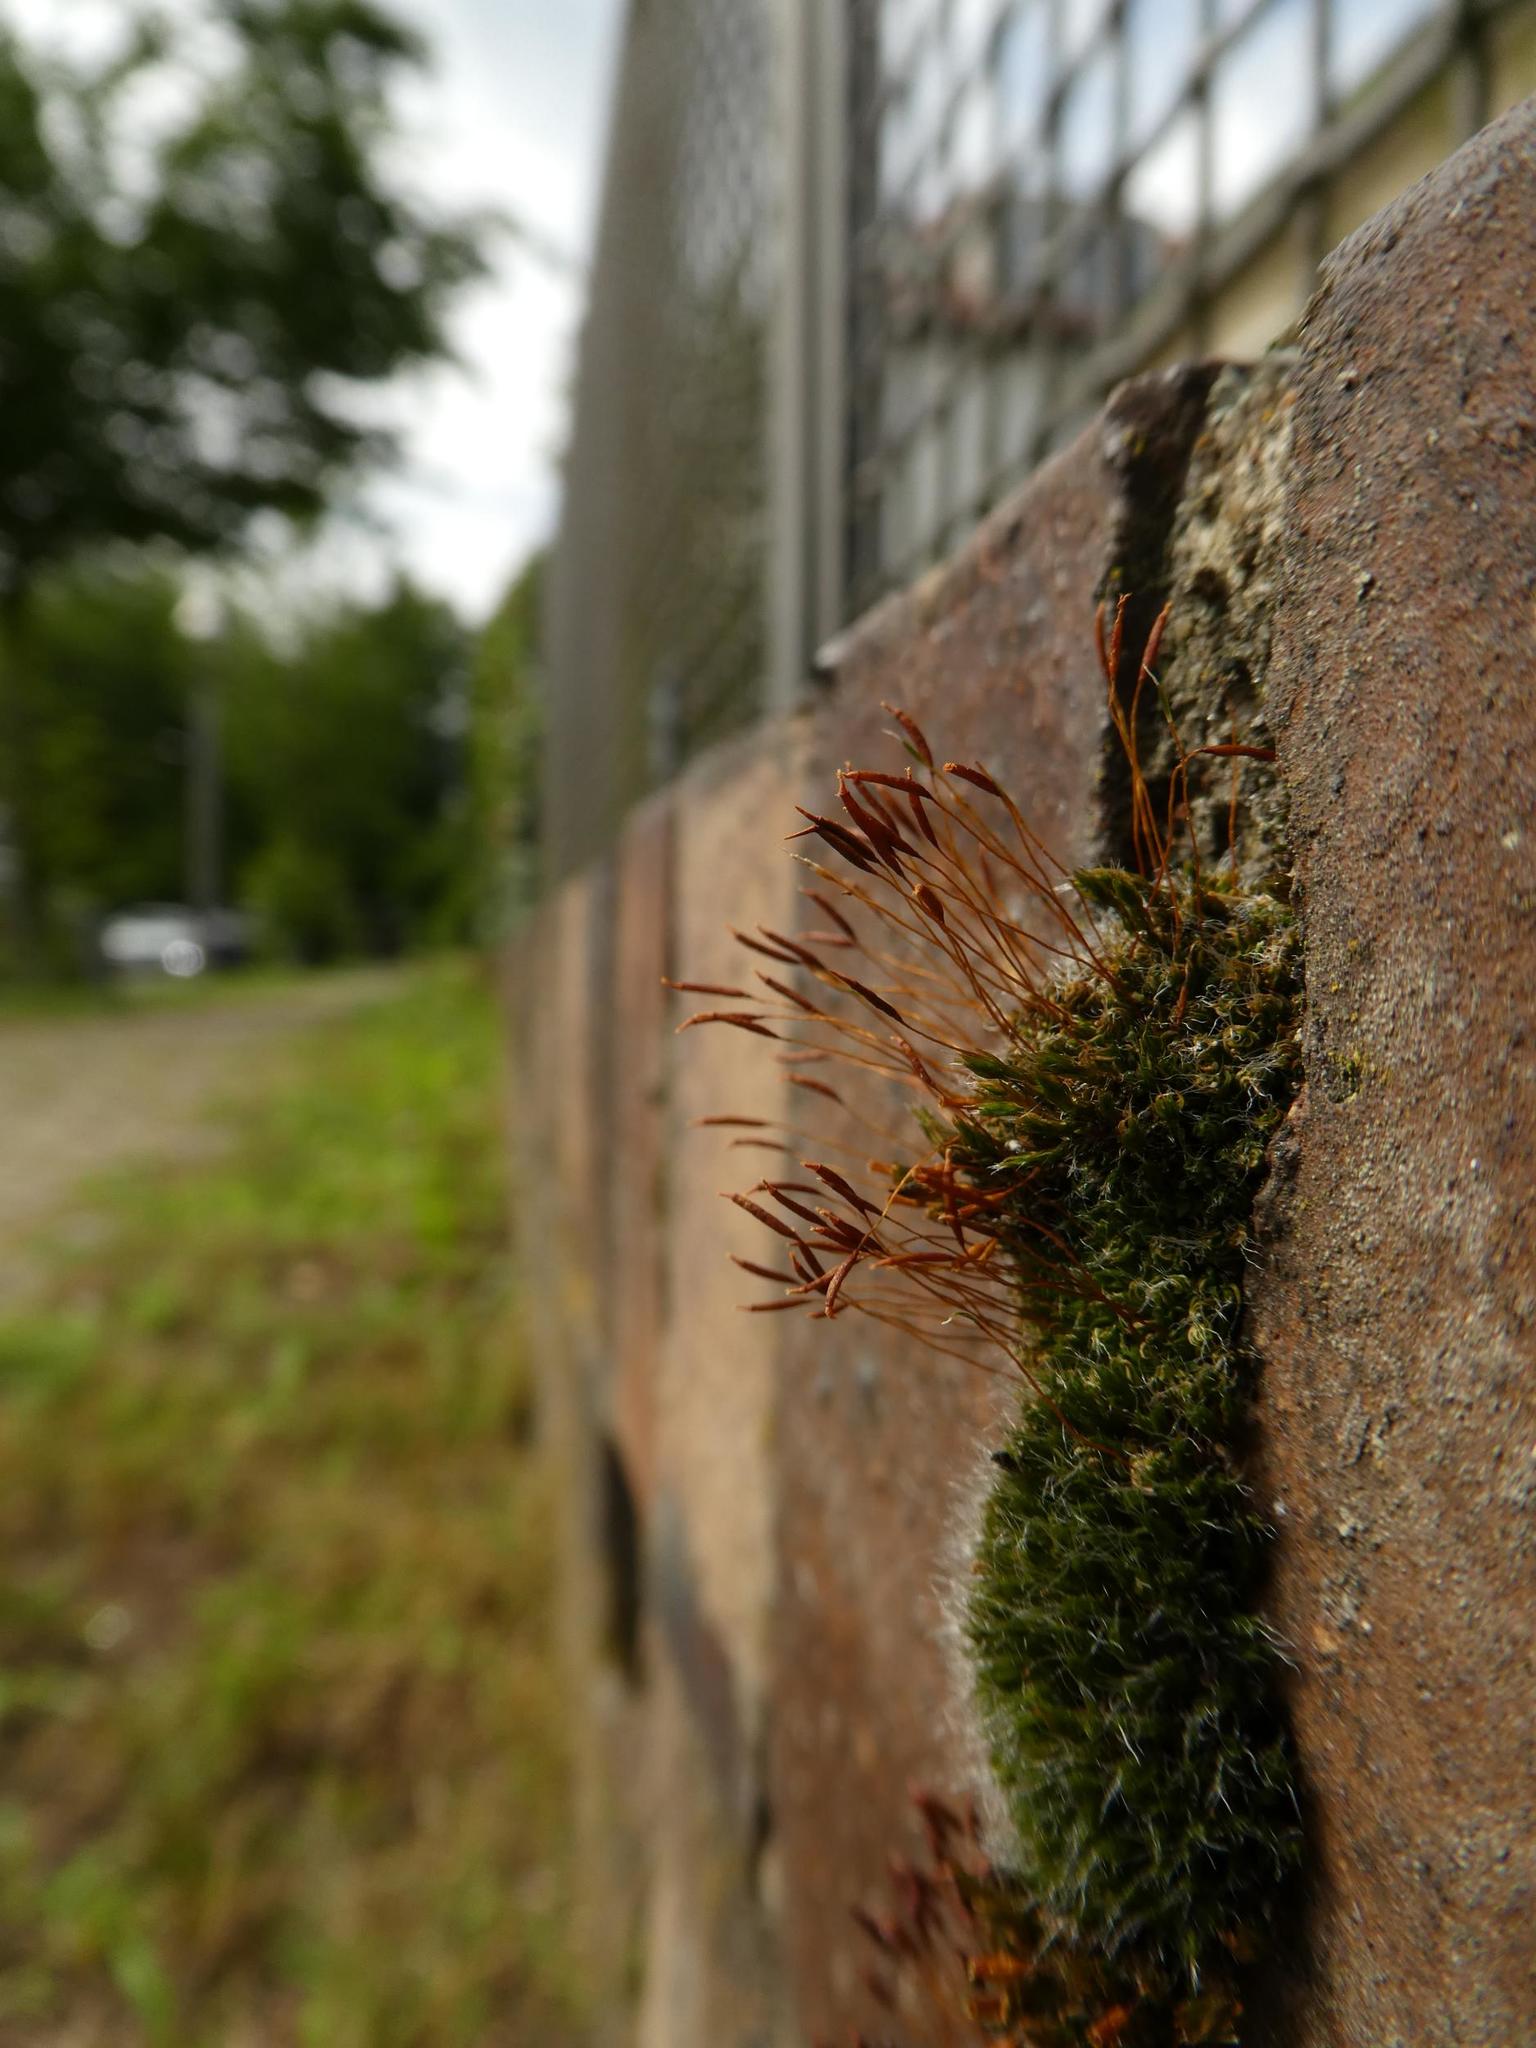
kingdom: Plantae
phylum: Bryophyta
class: Bryopsida
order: Pottiales
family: Pottiaceae
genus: Tortula
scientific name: Tortula muralis
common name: Wall screw-moss
